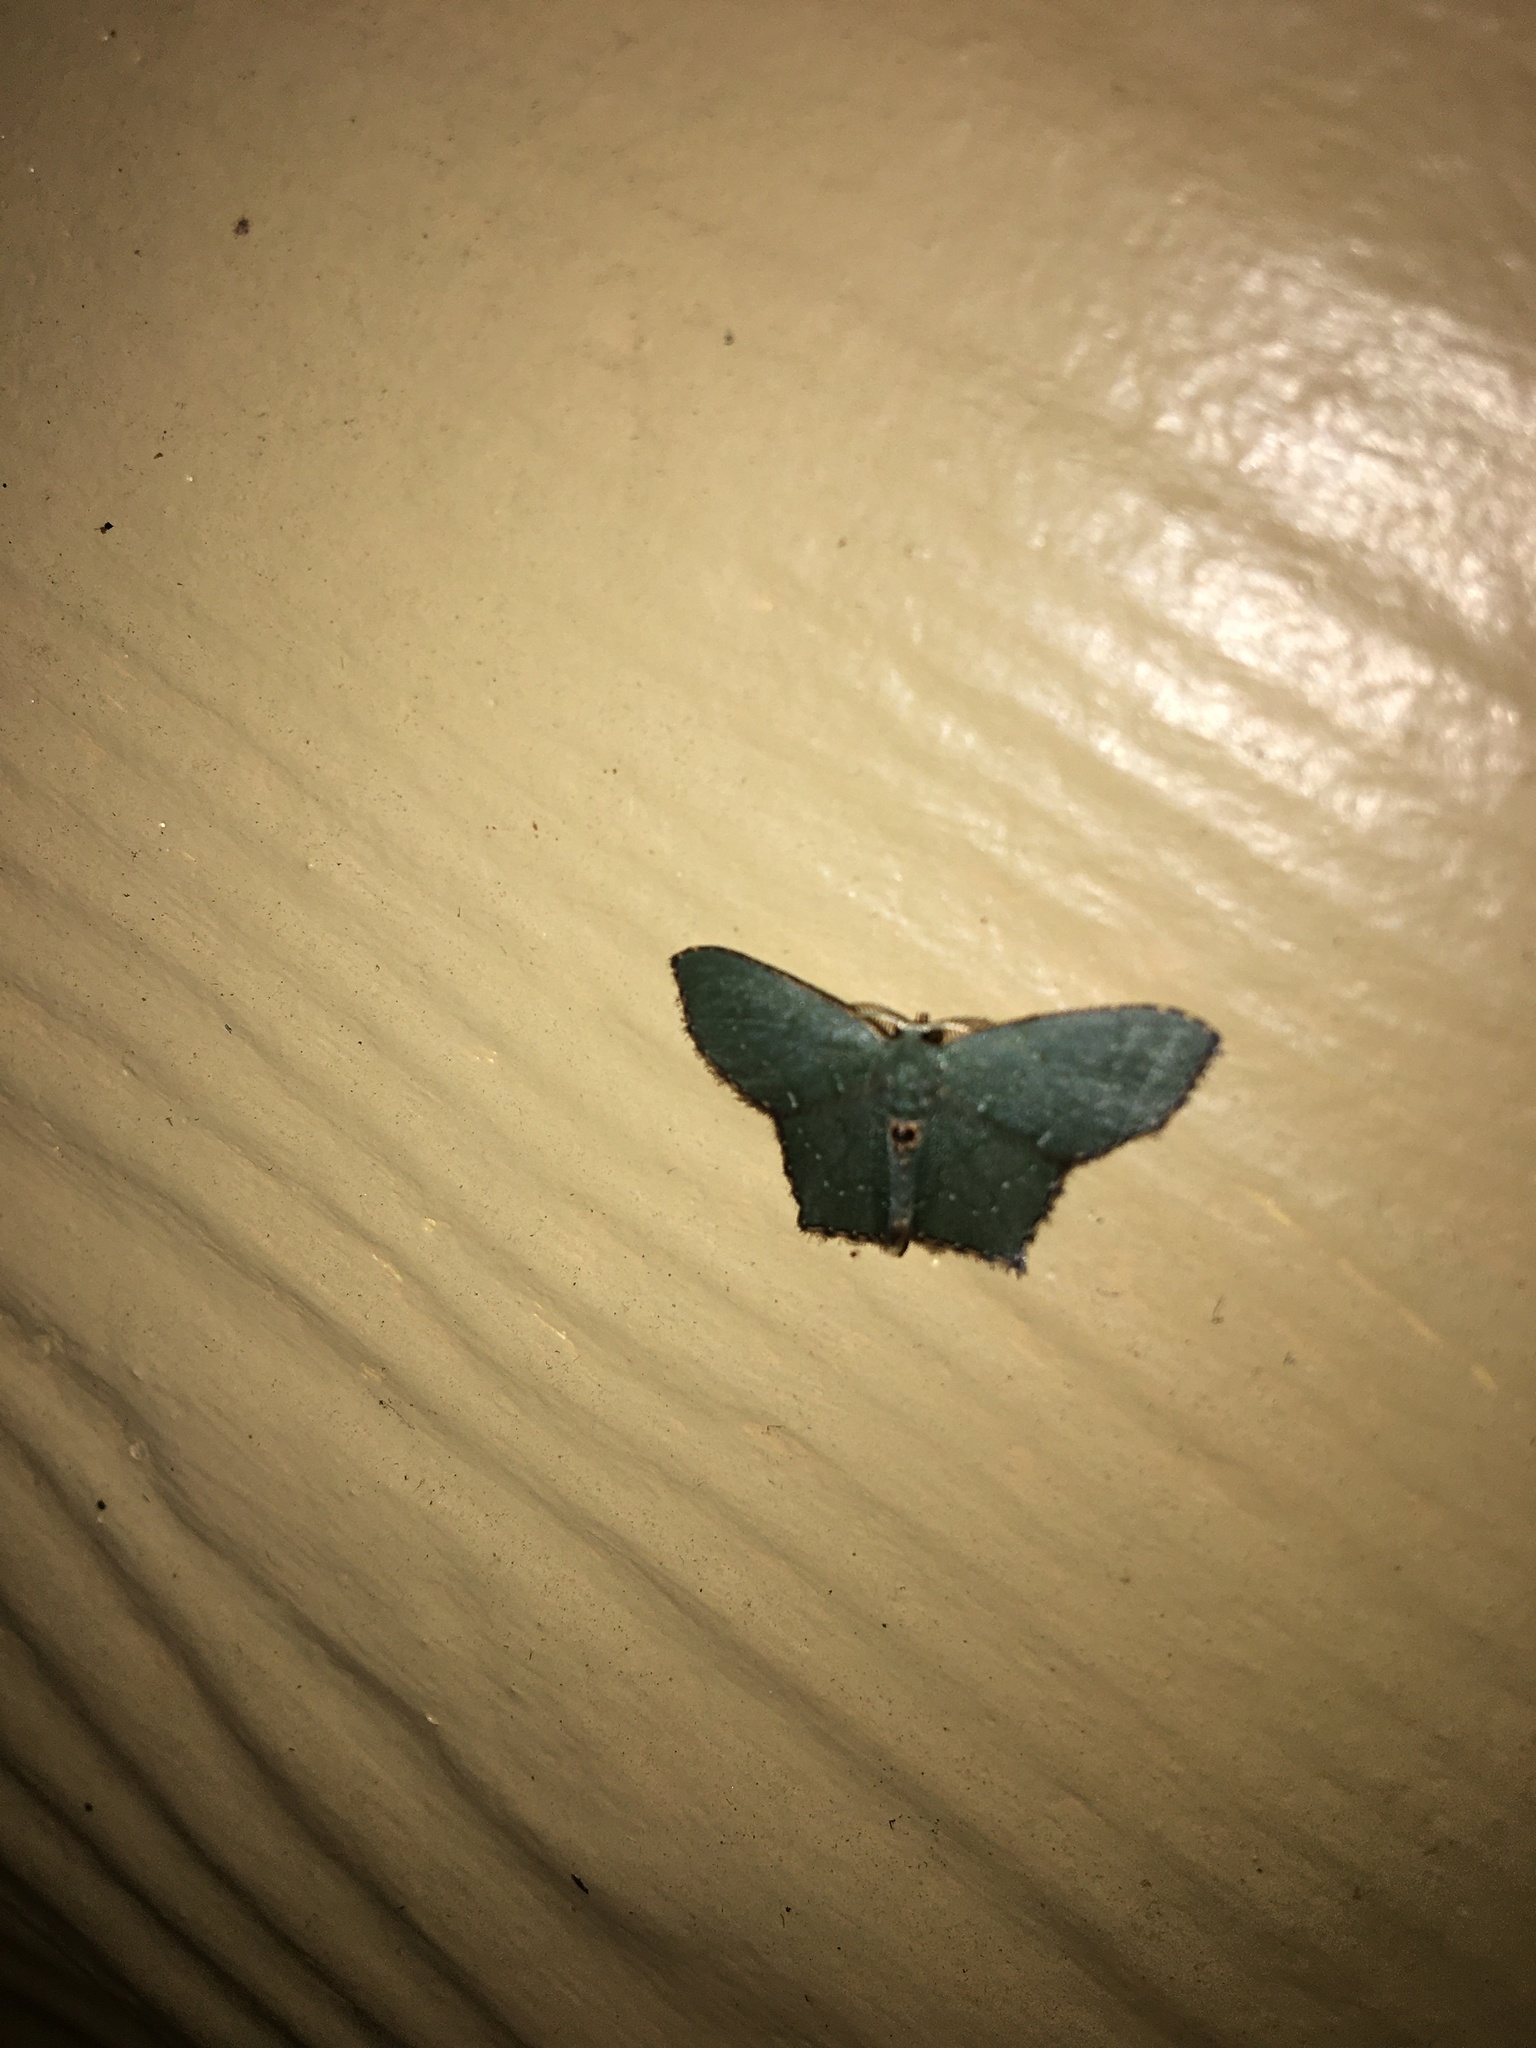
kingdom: Animalia
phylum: Arthropoda
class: Insecta
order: Lepidoptera
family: Geometridae
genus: Chloropteryx
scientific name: Chloropteryx tepperaria
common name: Angle winged emerald moth
